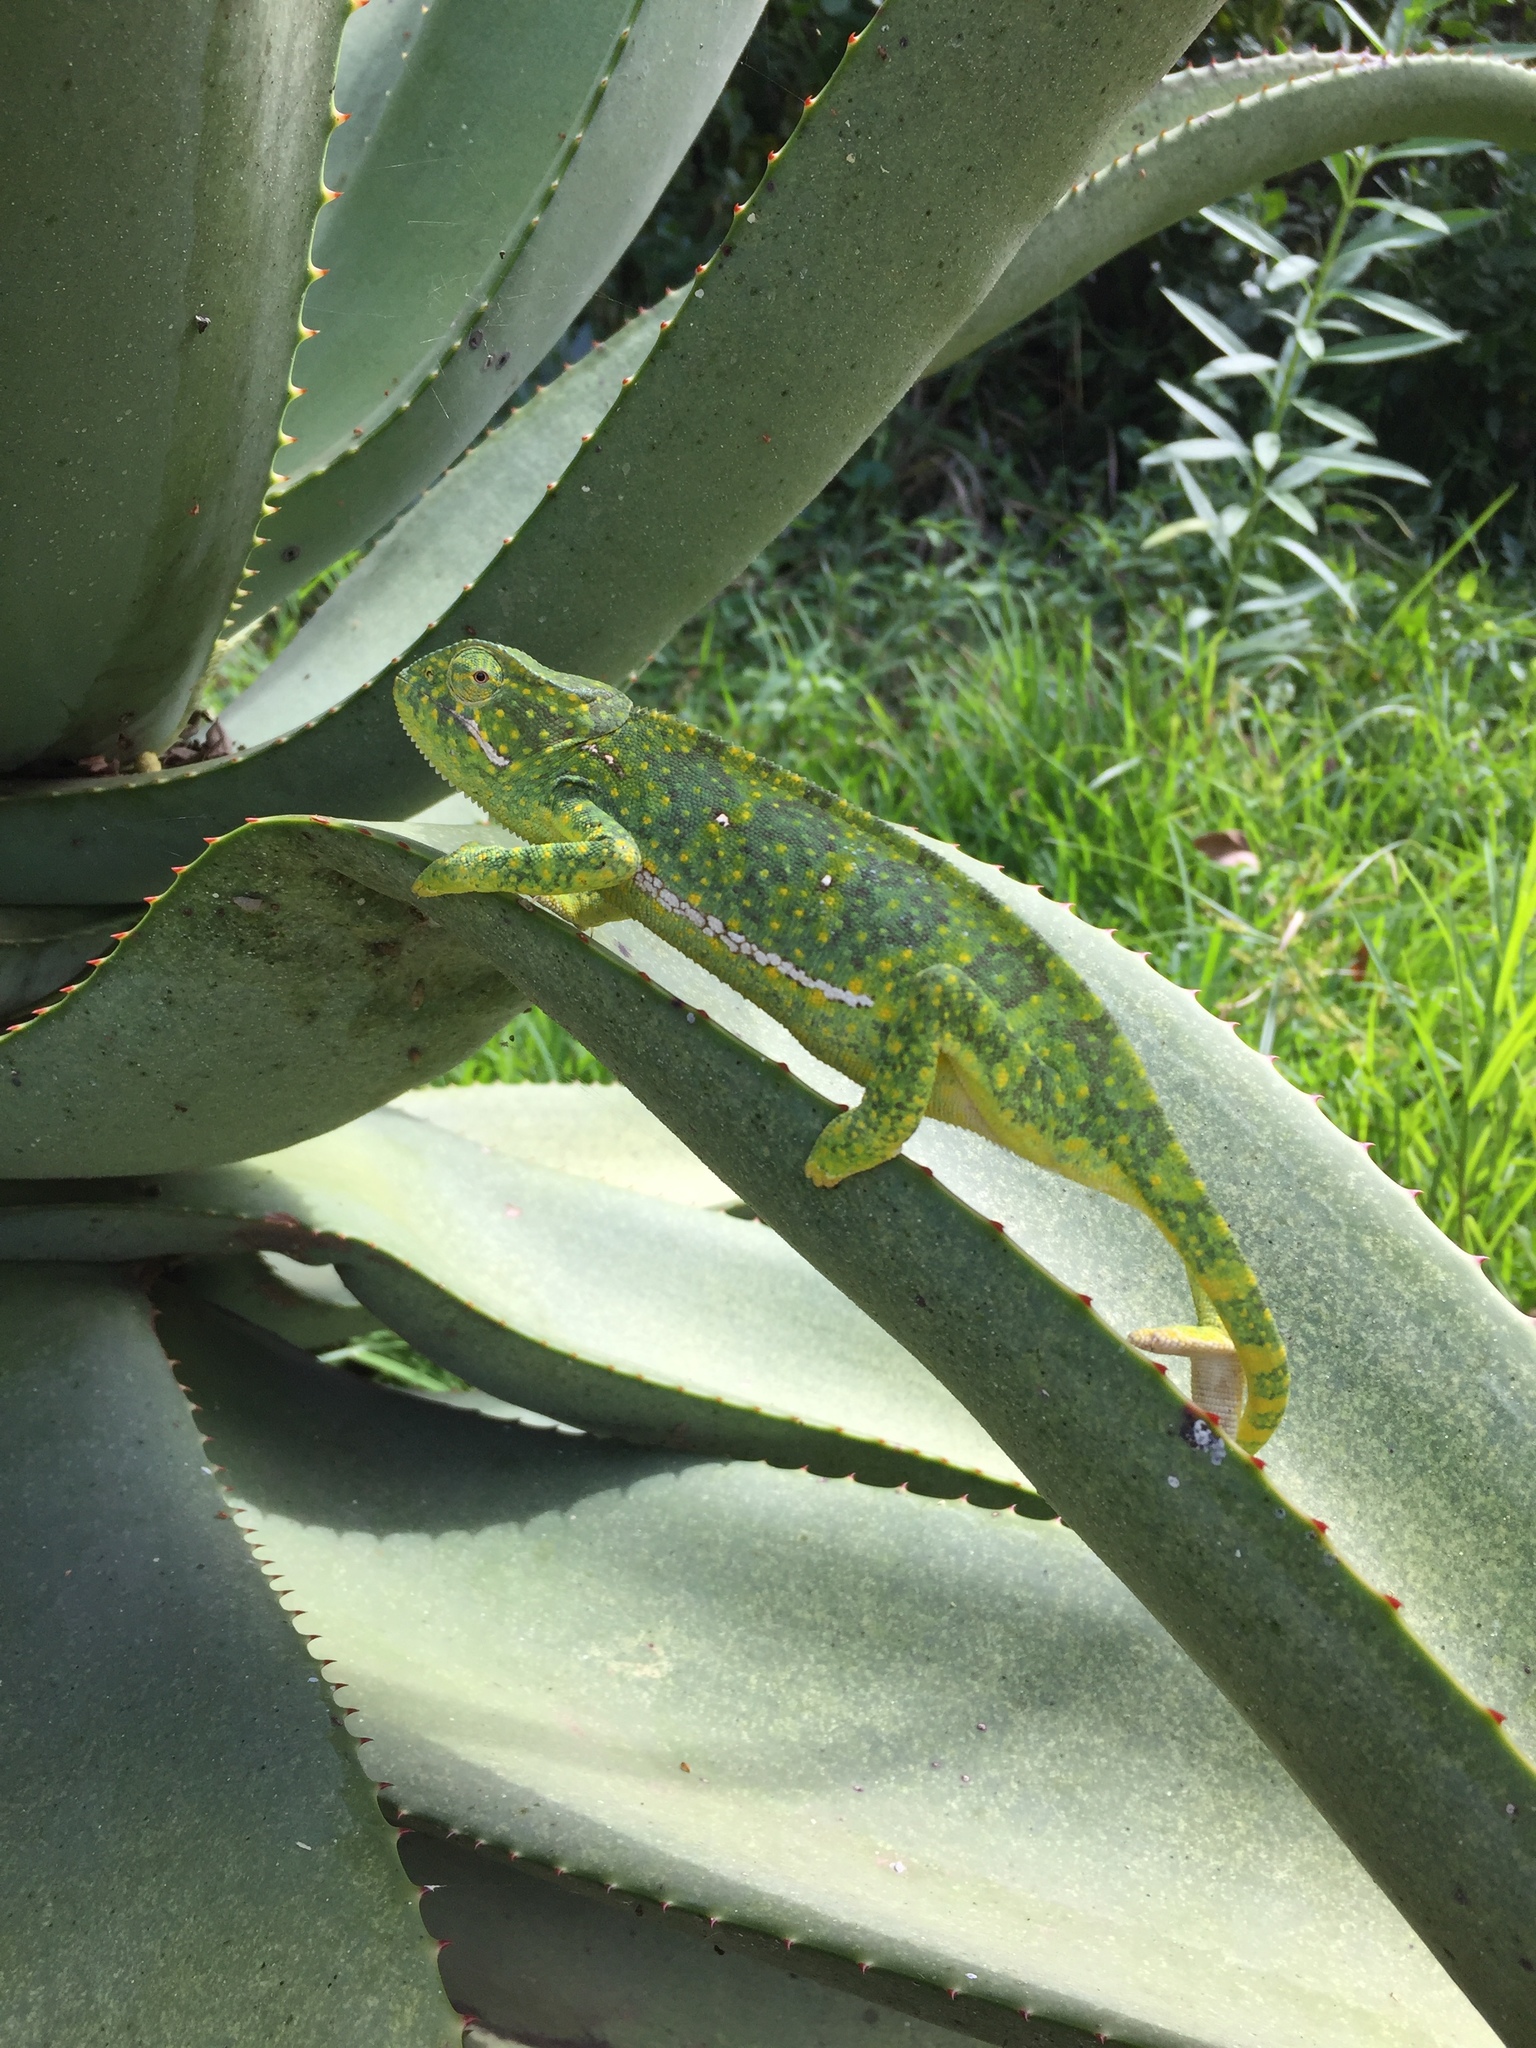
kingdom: Animalia
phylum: Chordata
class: Squamata
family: Chamaeleonidae
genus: Chamaeleo
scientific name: Chamaeleo dilepis
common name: Flapneck chameleon
